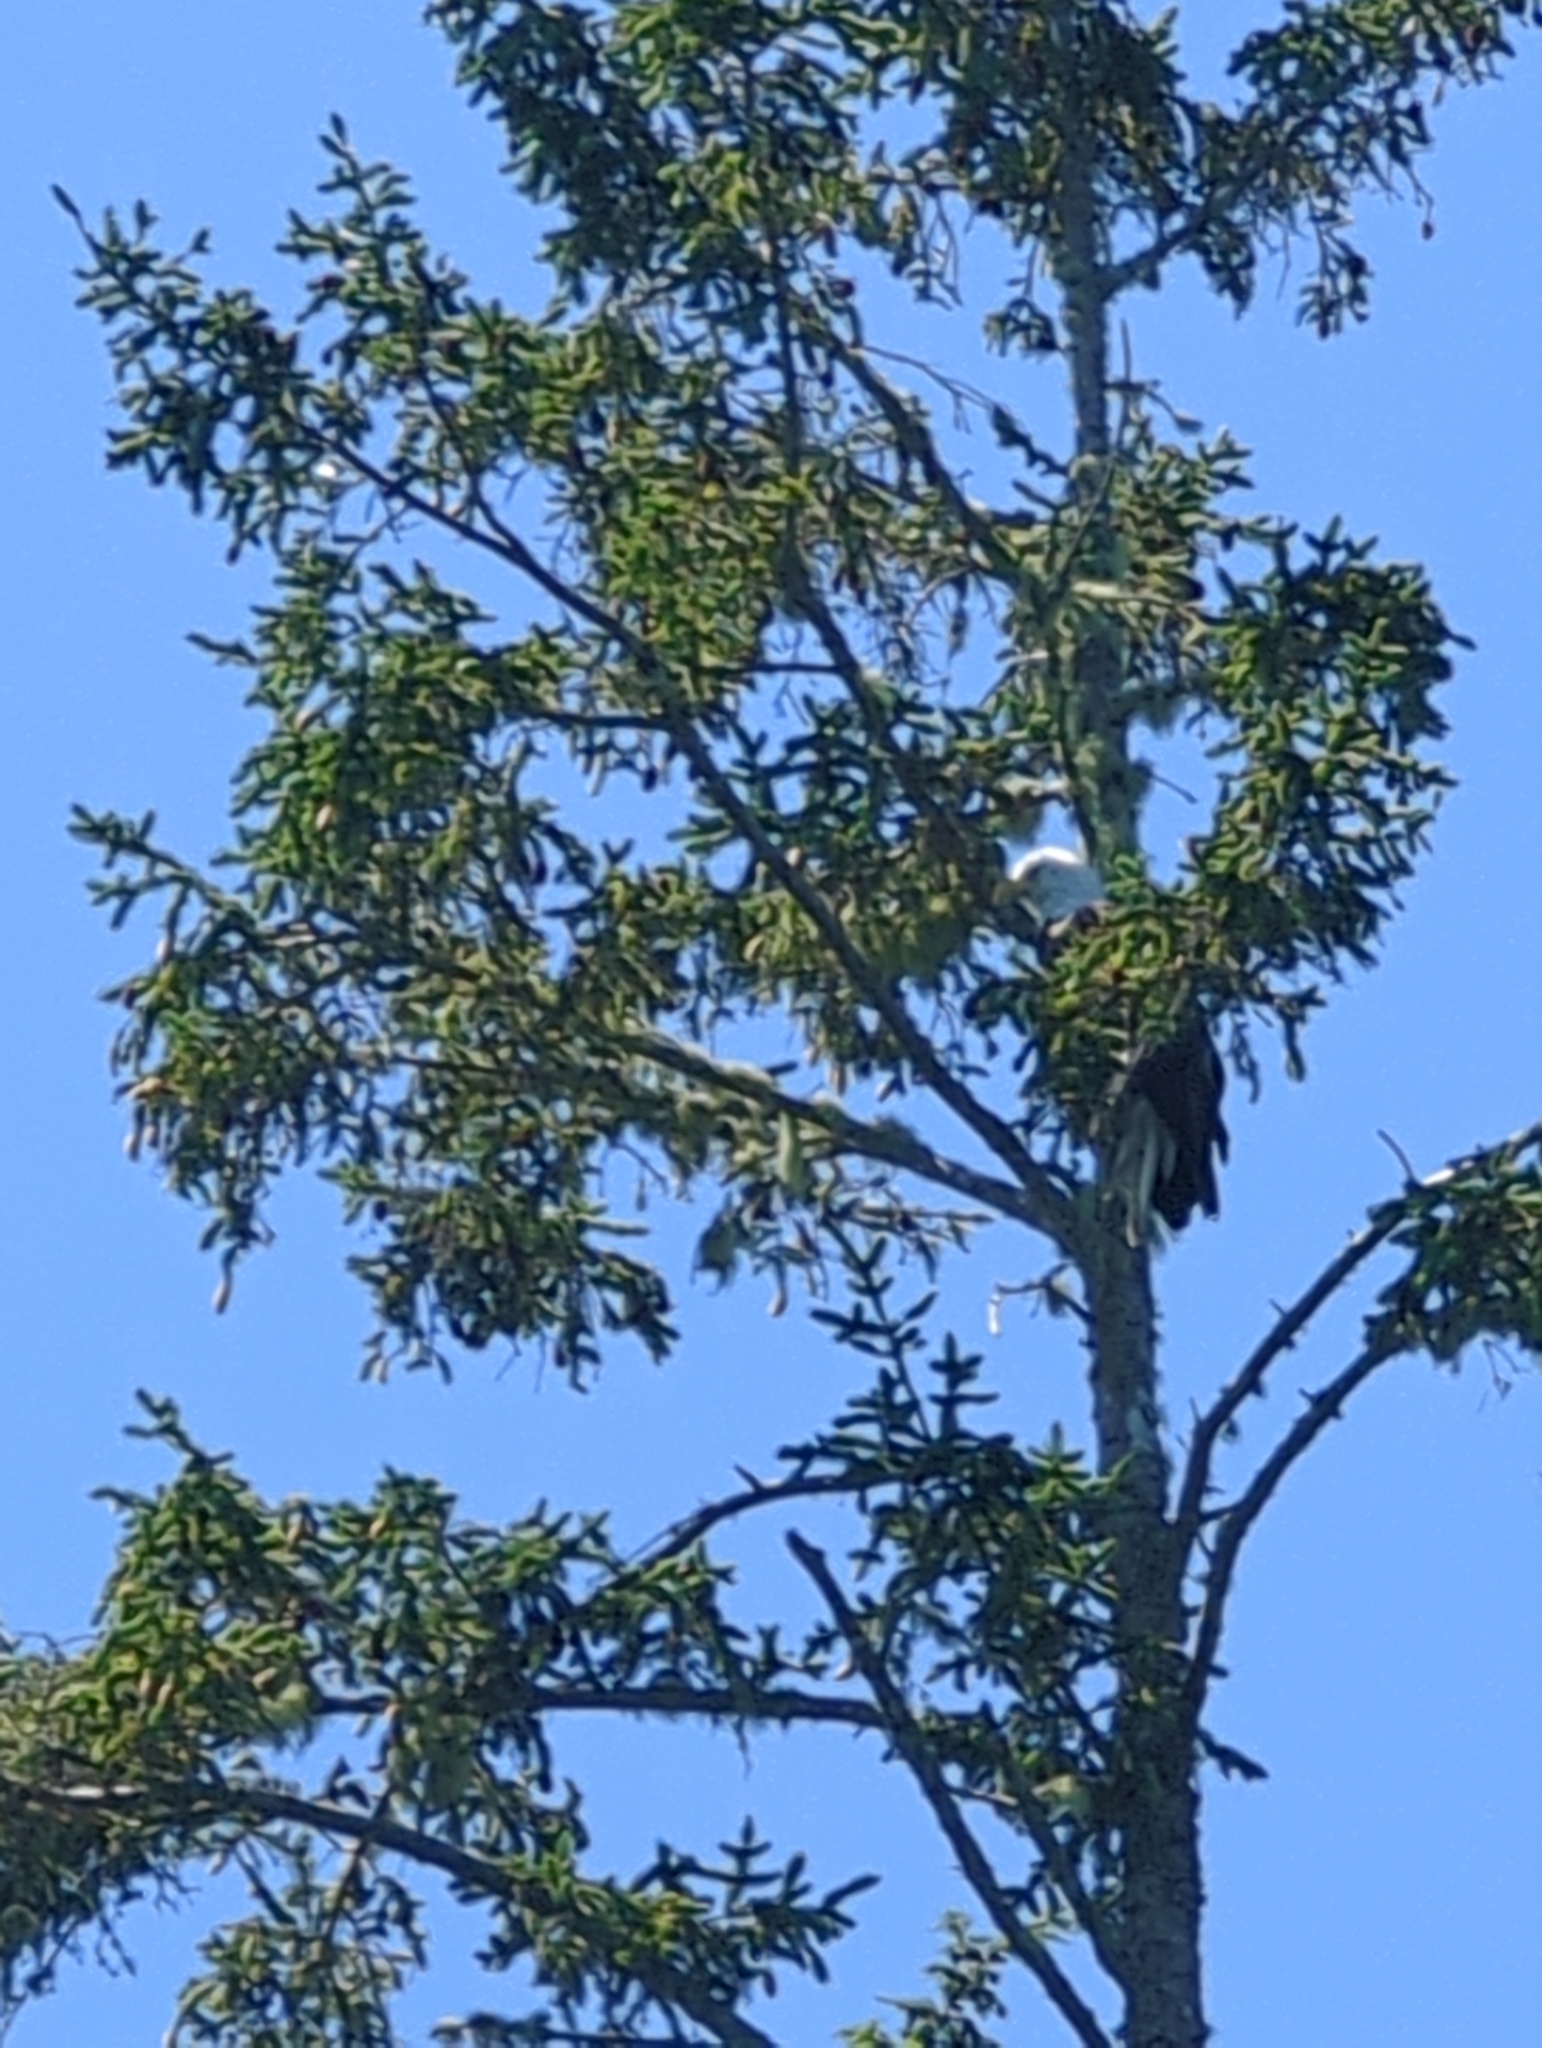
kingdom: Animalia
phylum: Chordata
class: Aves
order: Accipitriformes
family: Accipitridae
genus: Haliaeetus
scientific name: Haliaeetus leucocephalus
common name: Bald eagle
